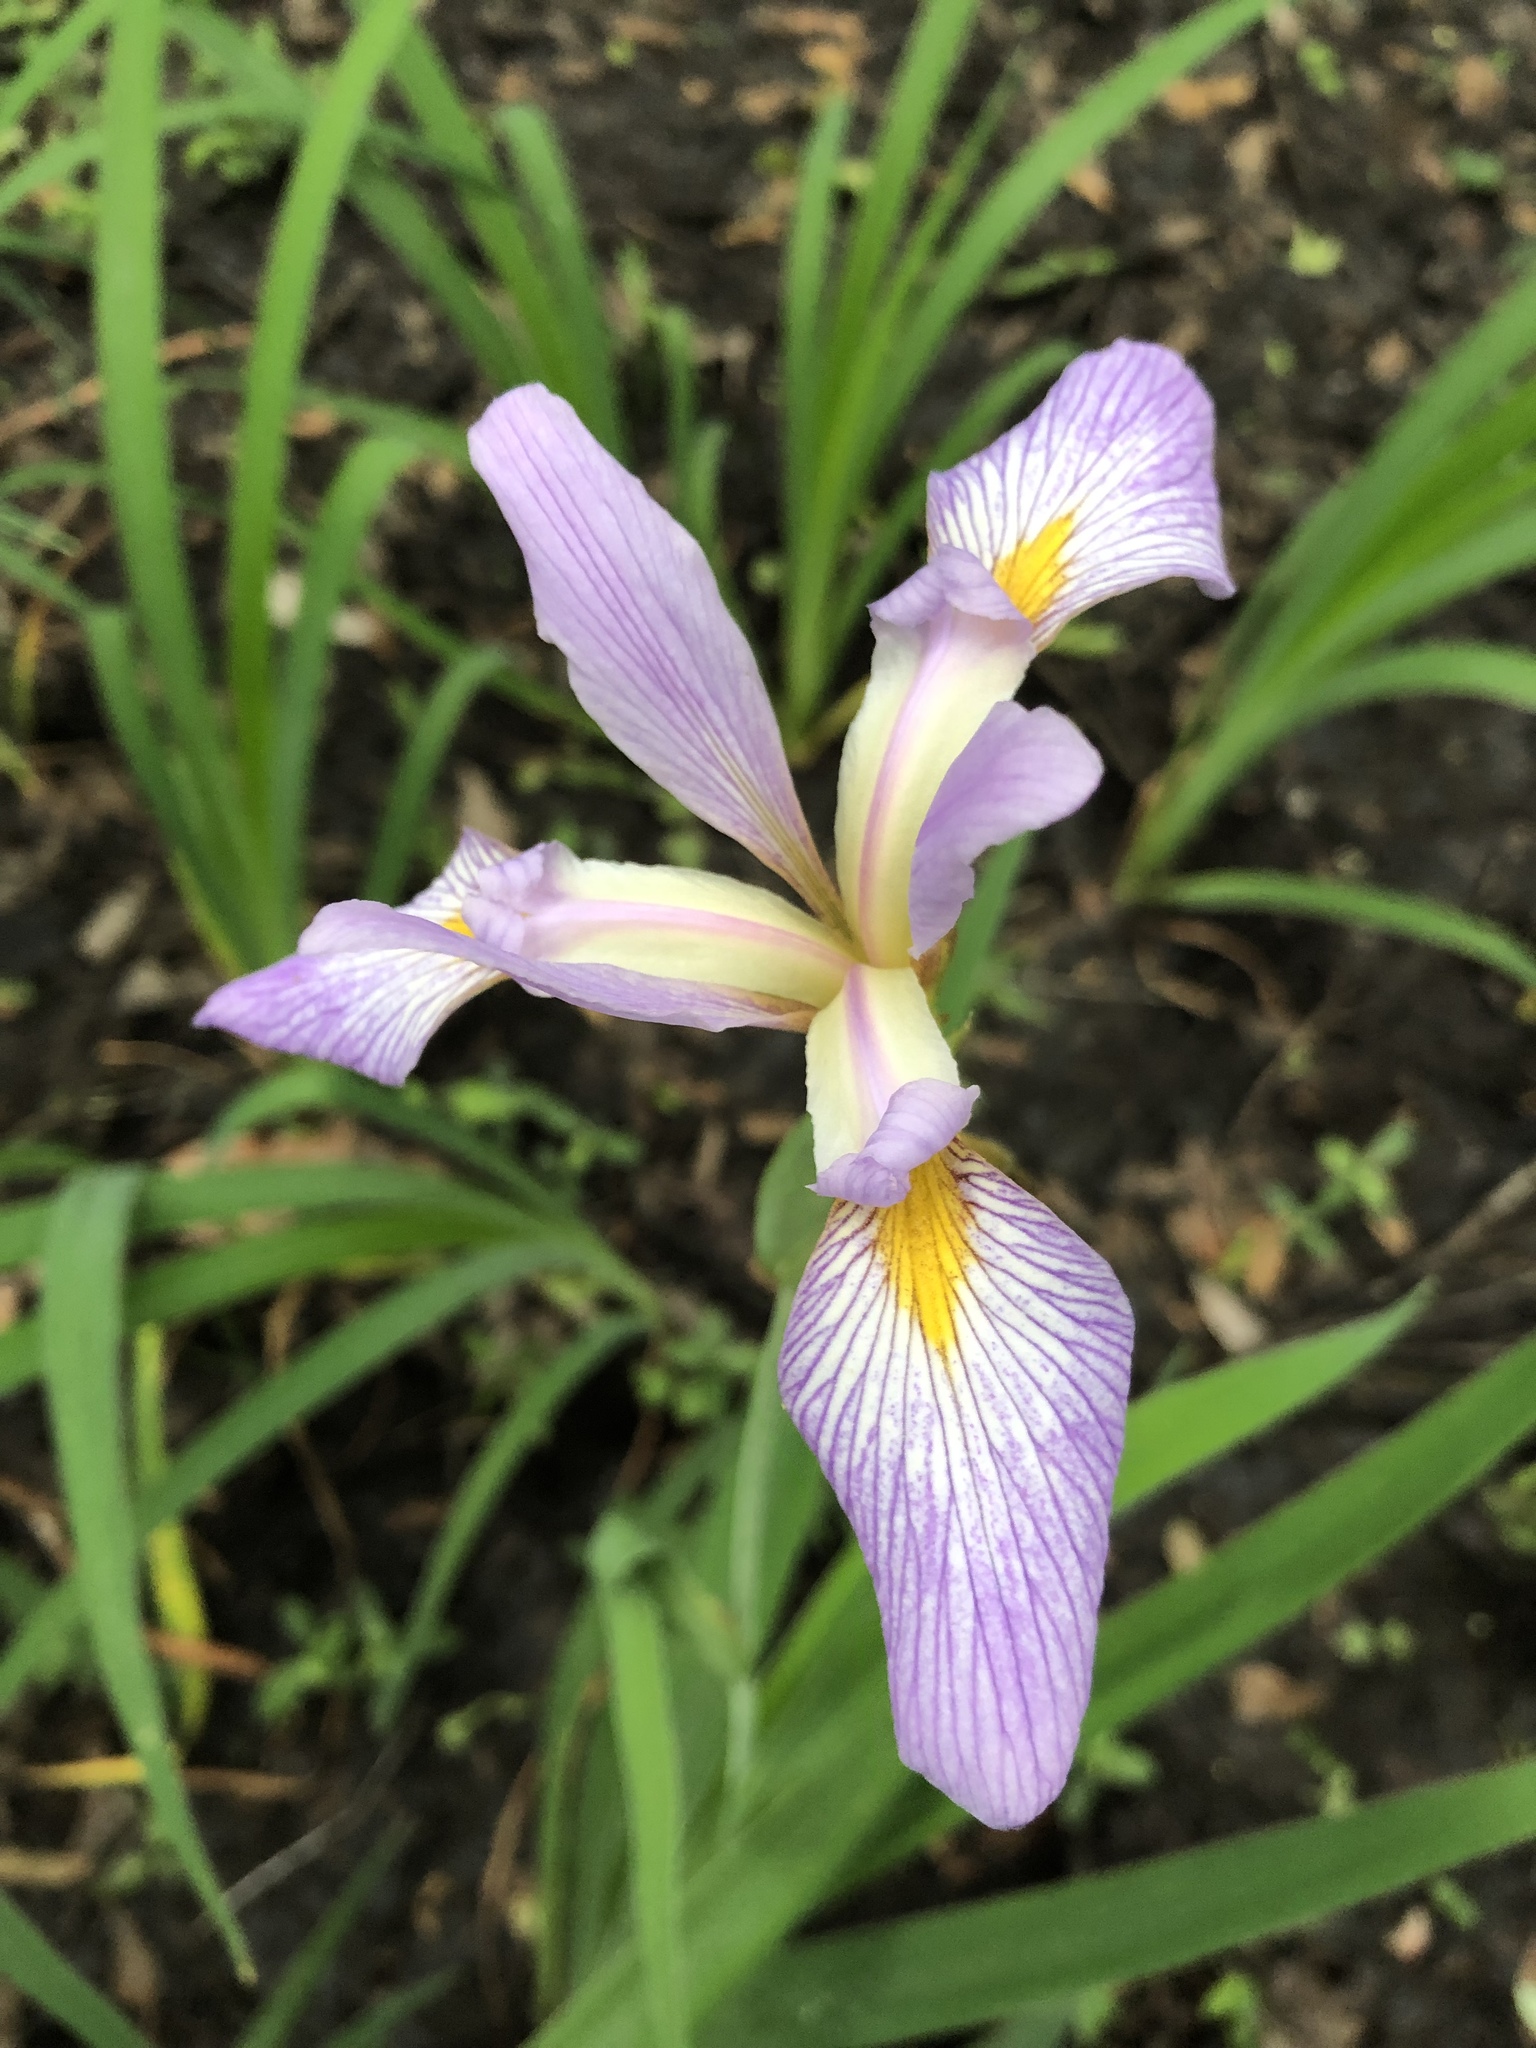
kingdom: Plantae
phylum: Tracheophyta
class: Liliopsida
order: Asparagales
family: Iridaceae
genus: Iris
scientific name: Iris virginica
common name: Southern blue flag
